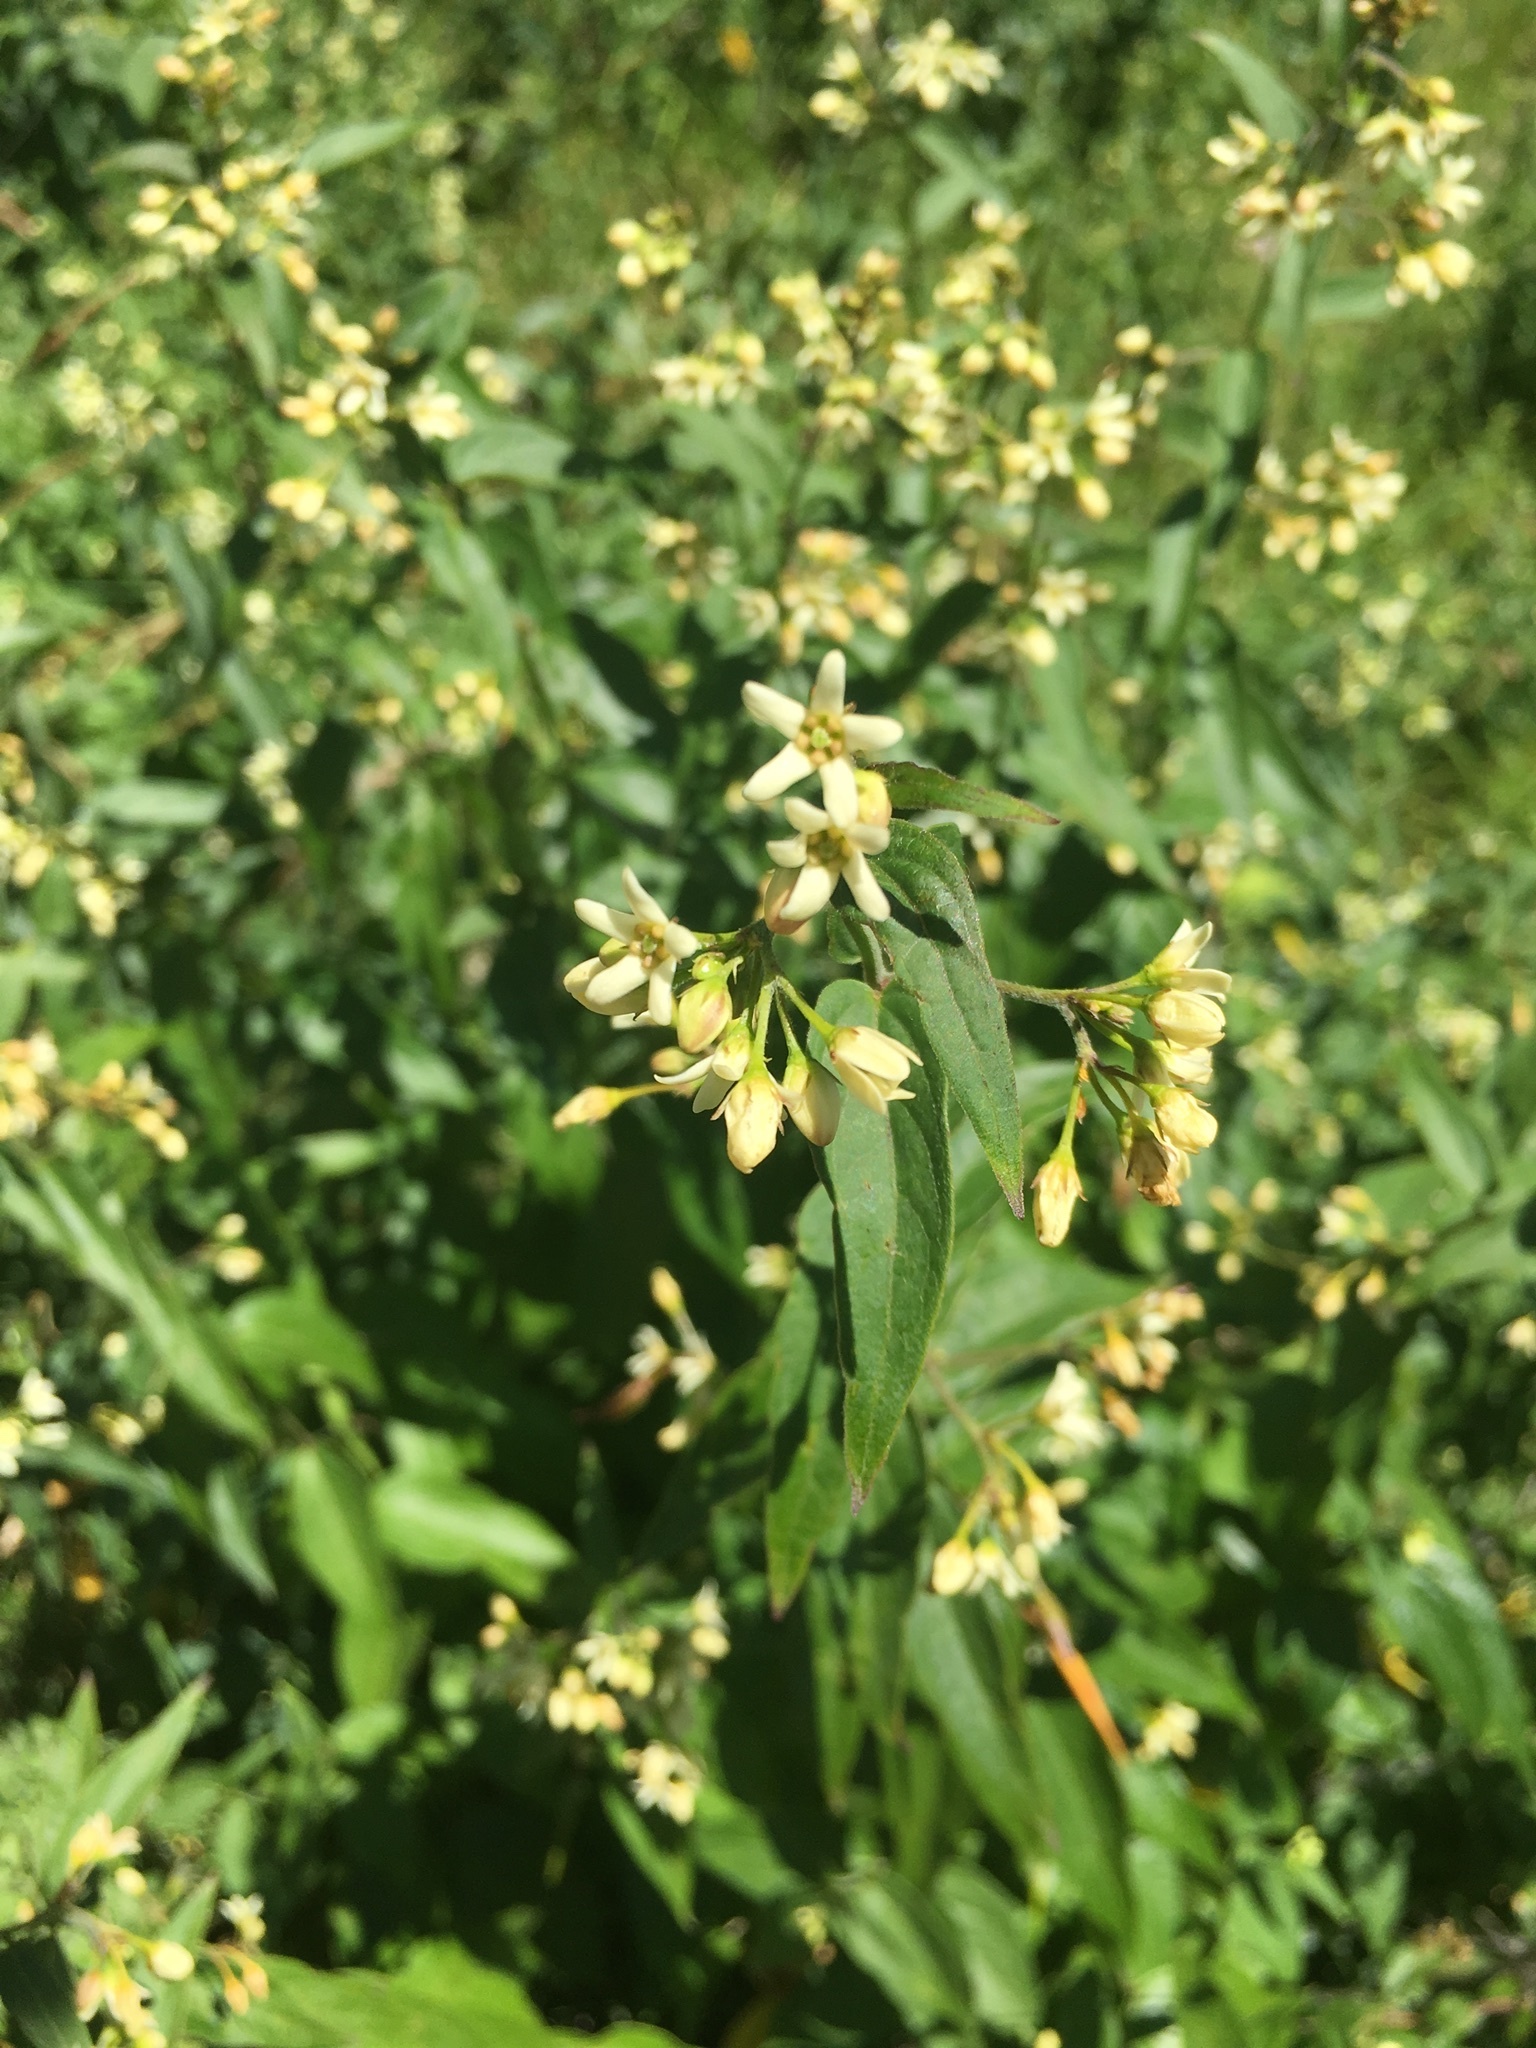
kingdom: Plantae
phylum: Tracheophyta
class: Magnoliopsida
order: Gentianales
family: Apocynaceae
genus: Vincetoxicum
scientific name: Vincetoxicum hirundinaria
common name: White swallowwort
